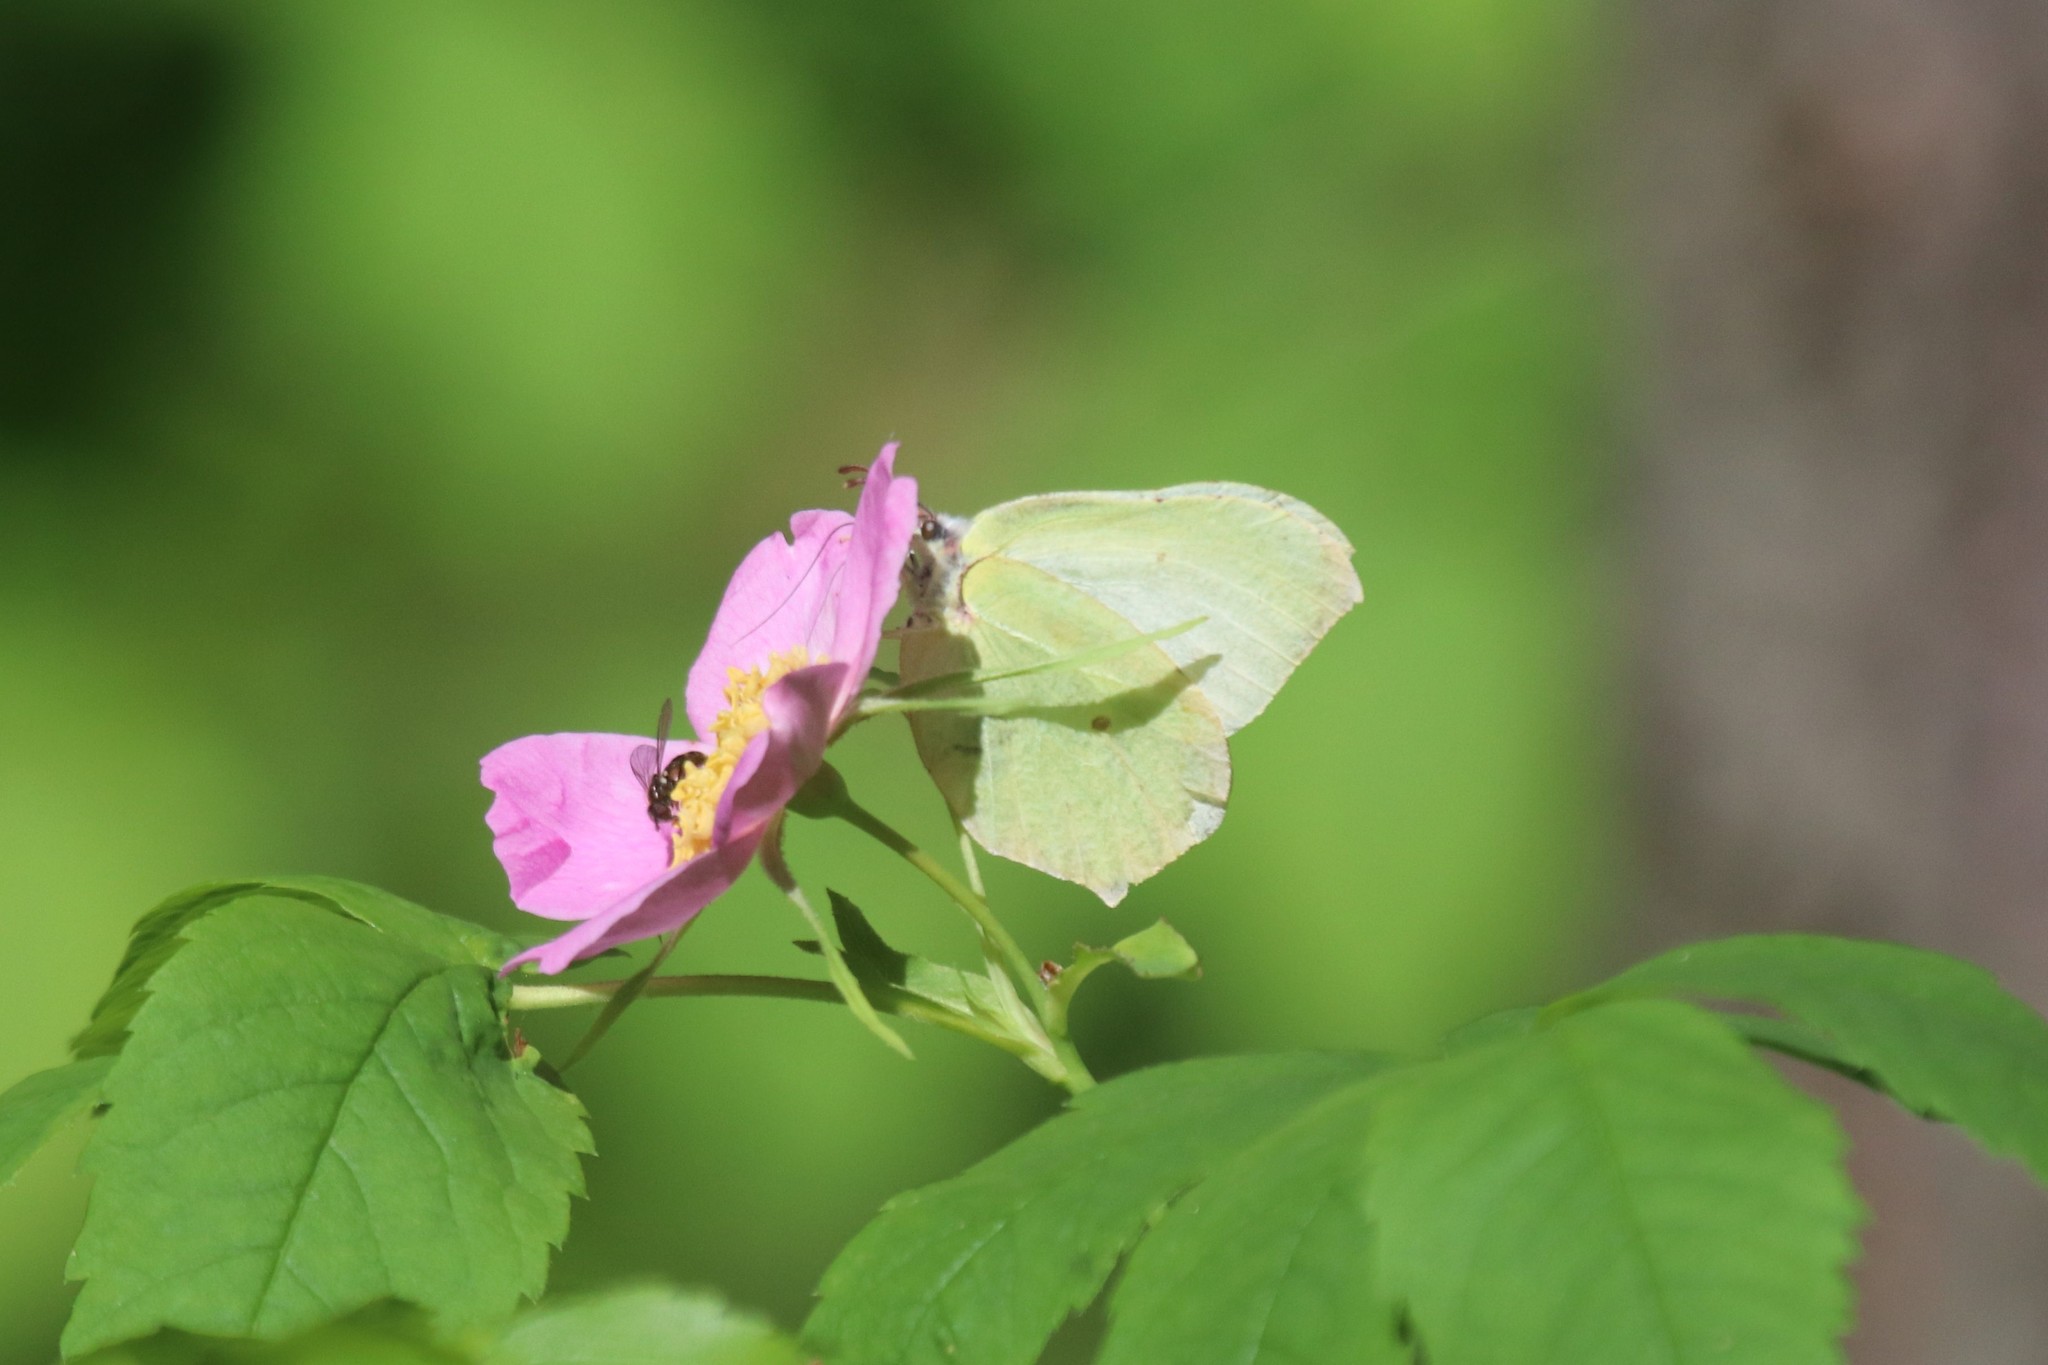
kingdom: Animalia
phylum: Arthropoda
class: Insecta
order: Lepidoptera
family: Pieridae
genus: Gonepteryx
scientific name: Gonepteryx rhamni
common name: Brimstone
